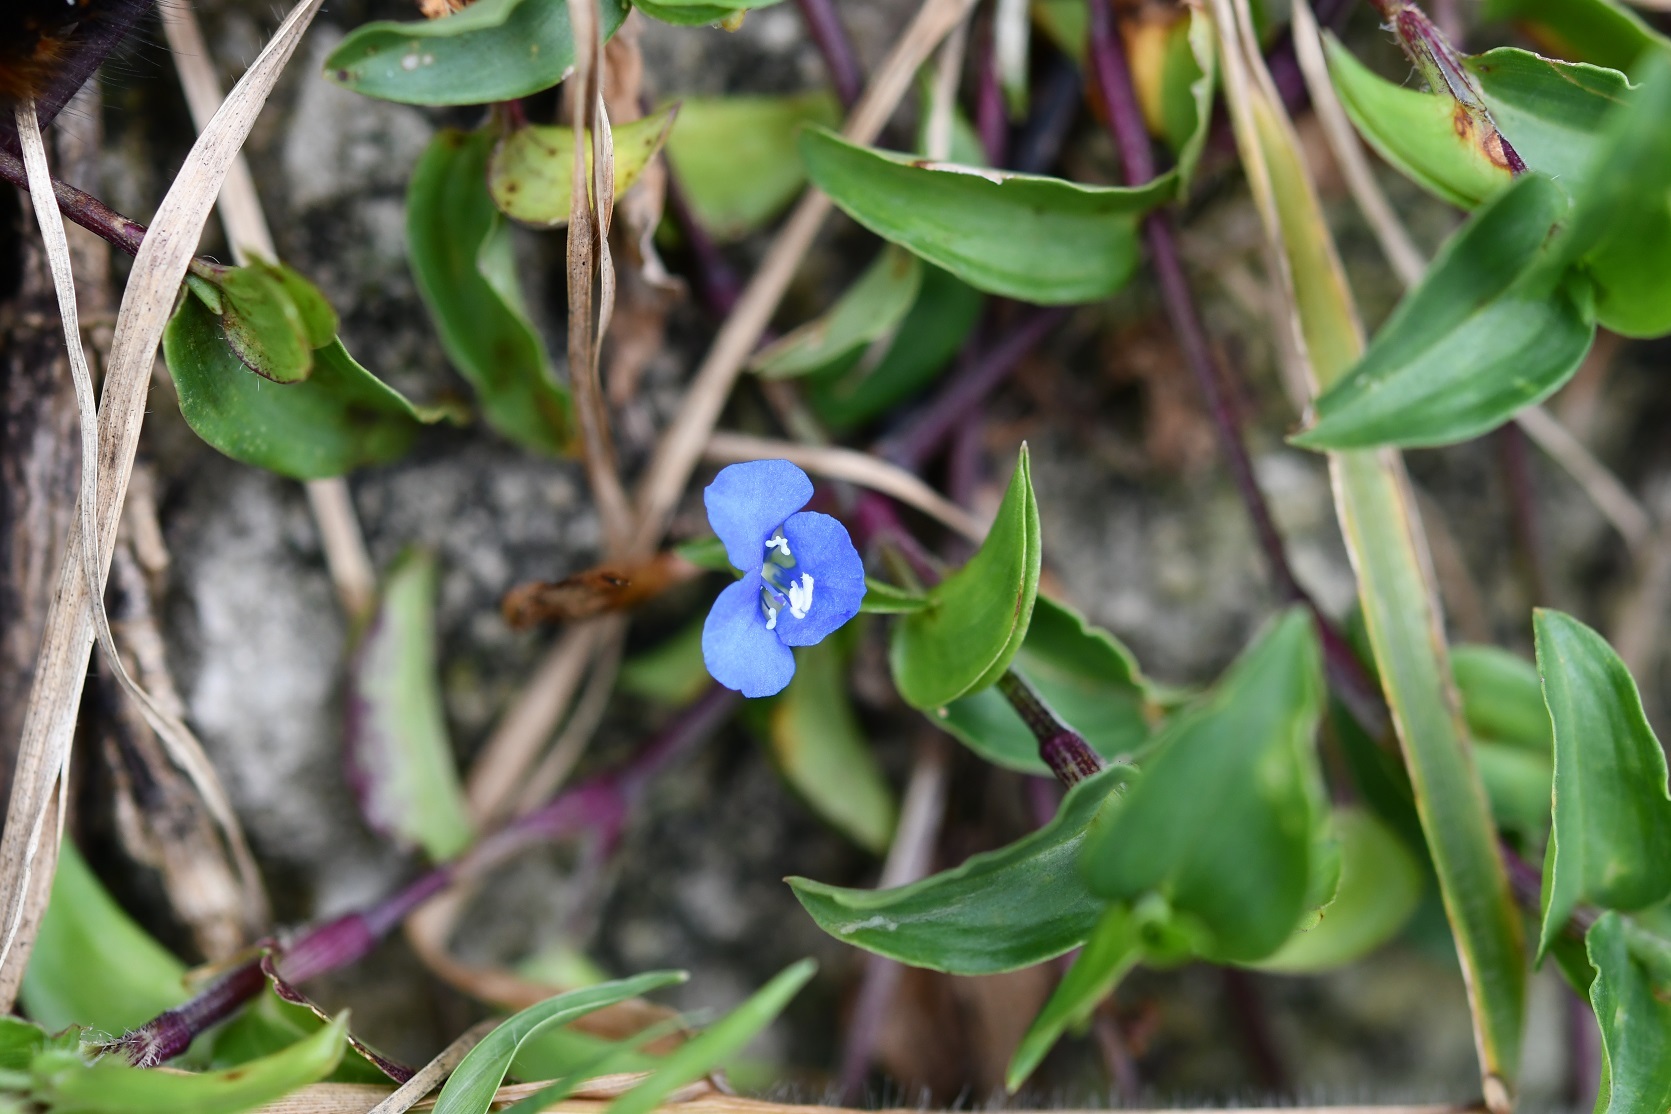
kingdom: Plantae
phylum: Tracheophyta
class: Liliopsida
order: Commelinales
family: Commelinaceae
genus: Commelina
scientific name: Commelina tuberosa
